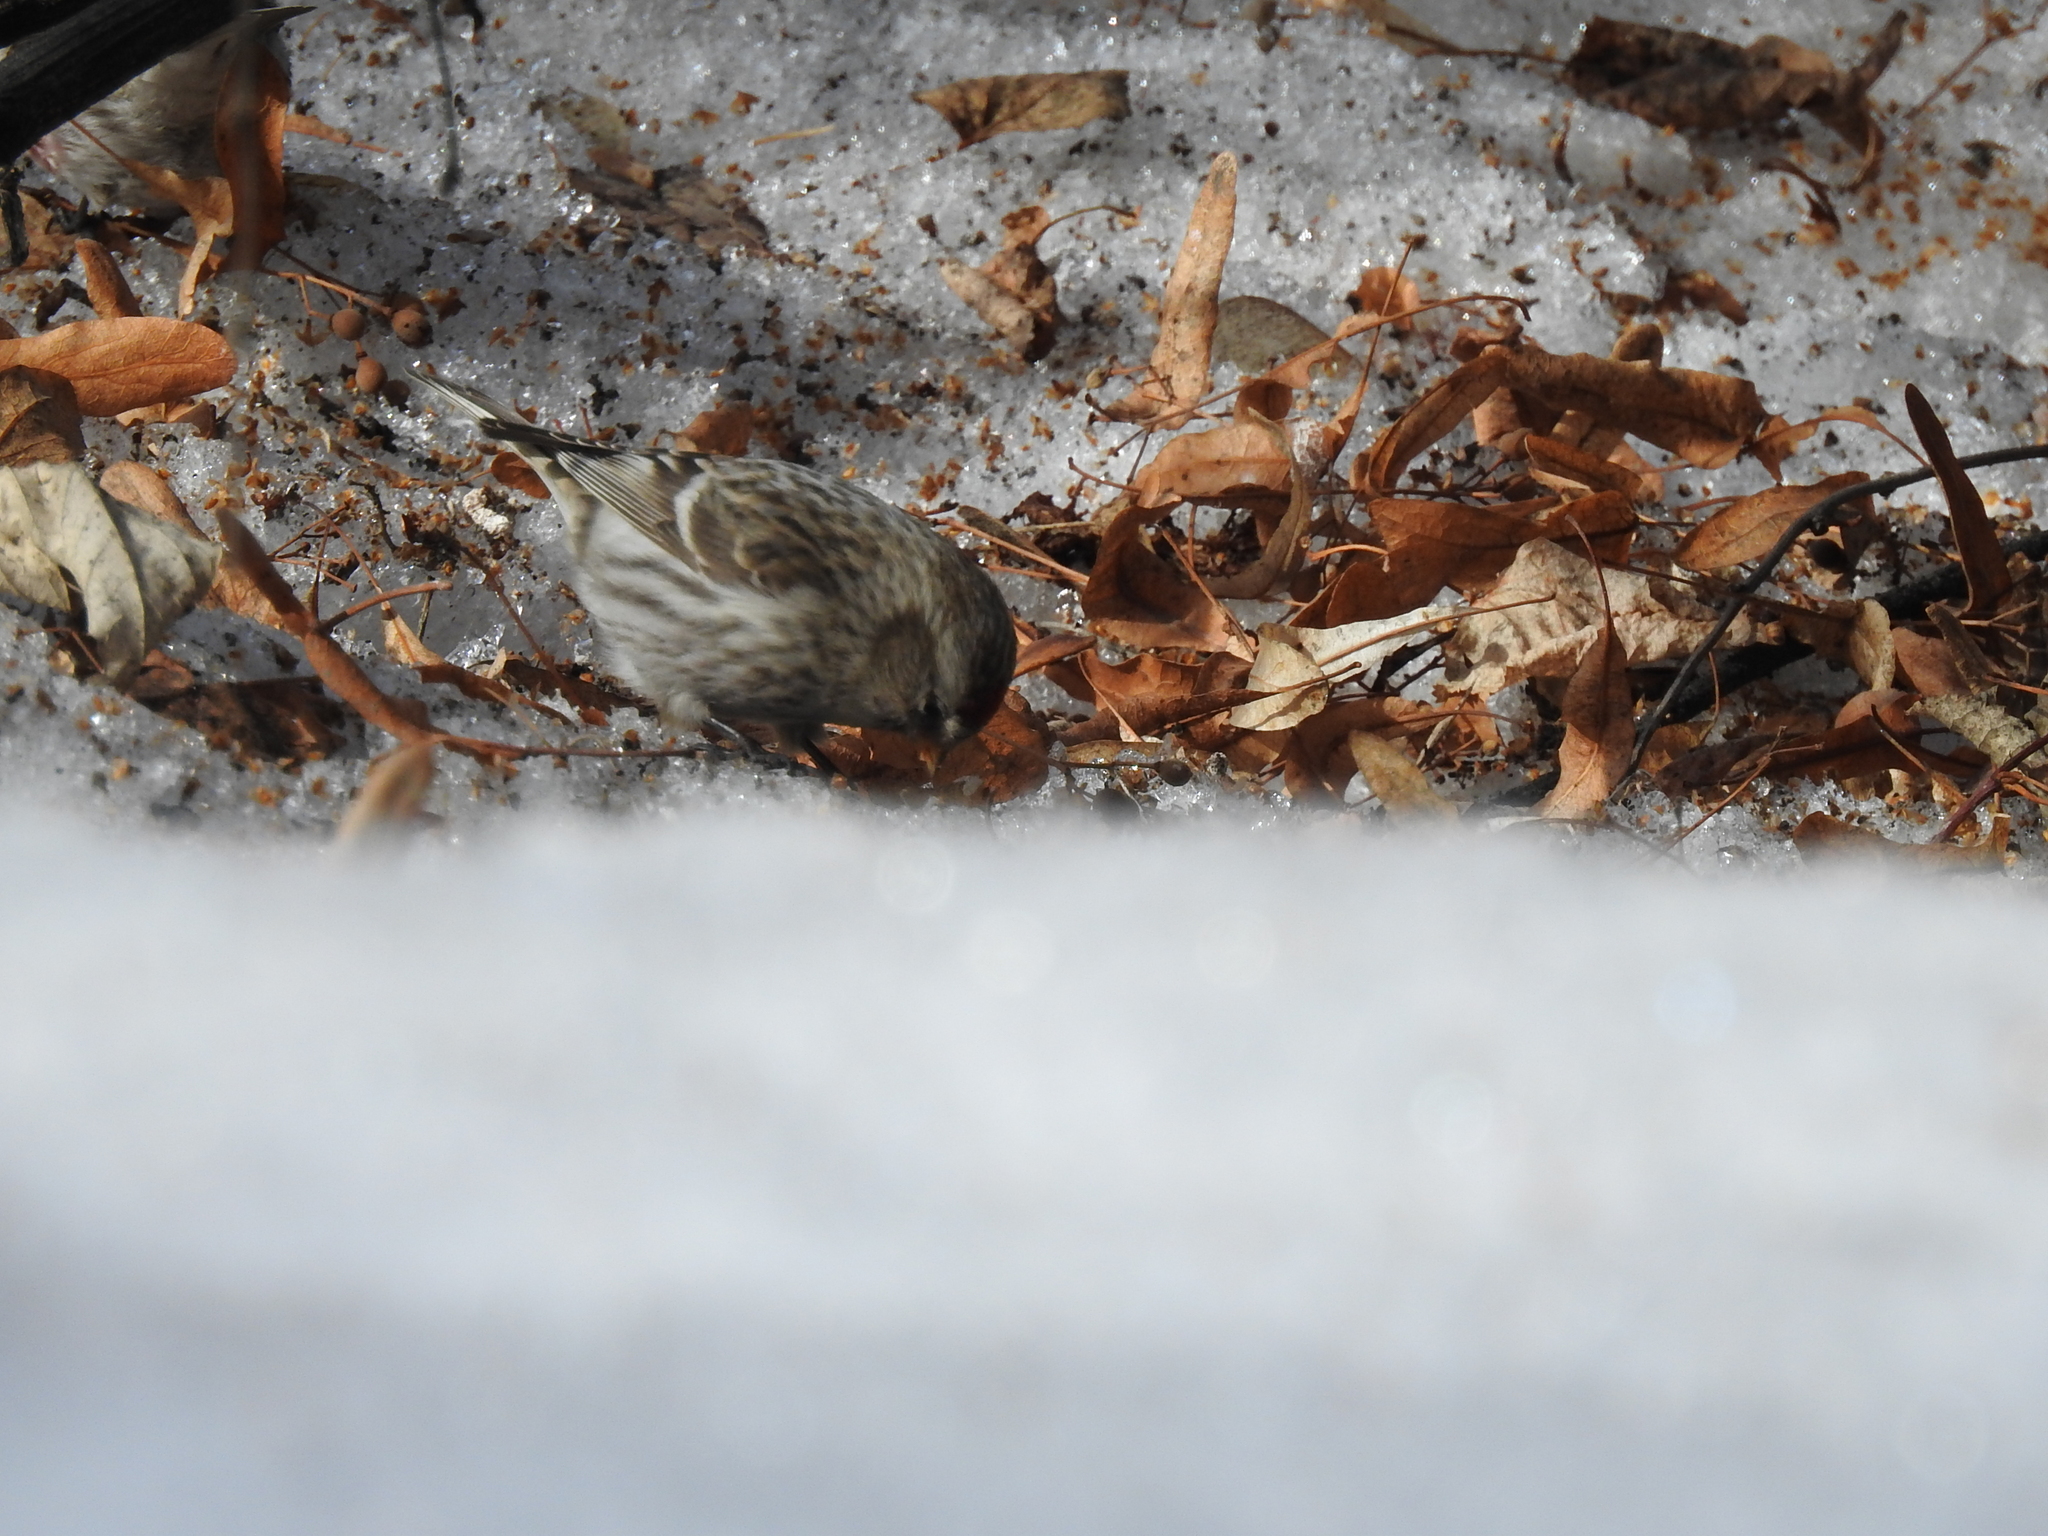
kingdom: Animalia
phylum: Chordata
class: Aves
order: Passeriformes
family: Fringillidae
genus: Acanthis
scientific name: Acanthis flammea
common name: Common redpoll
